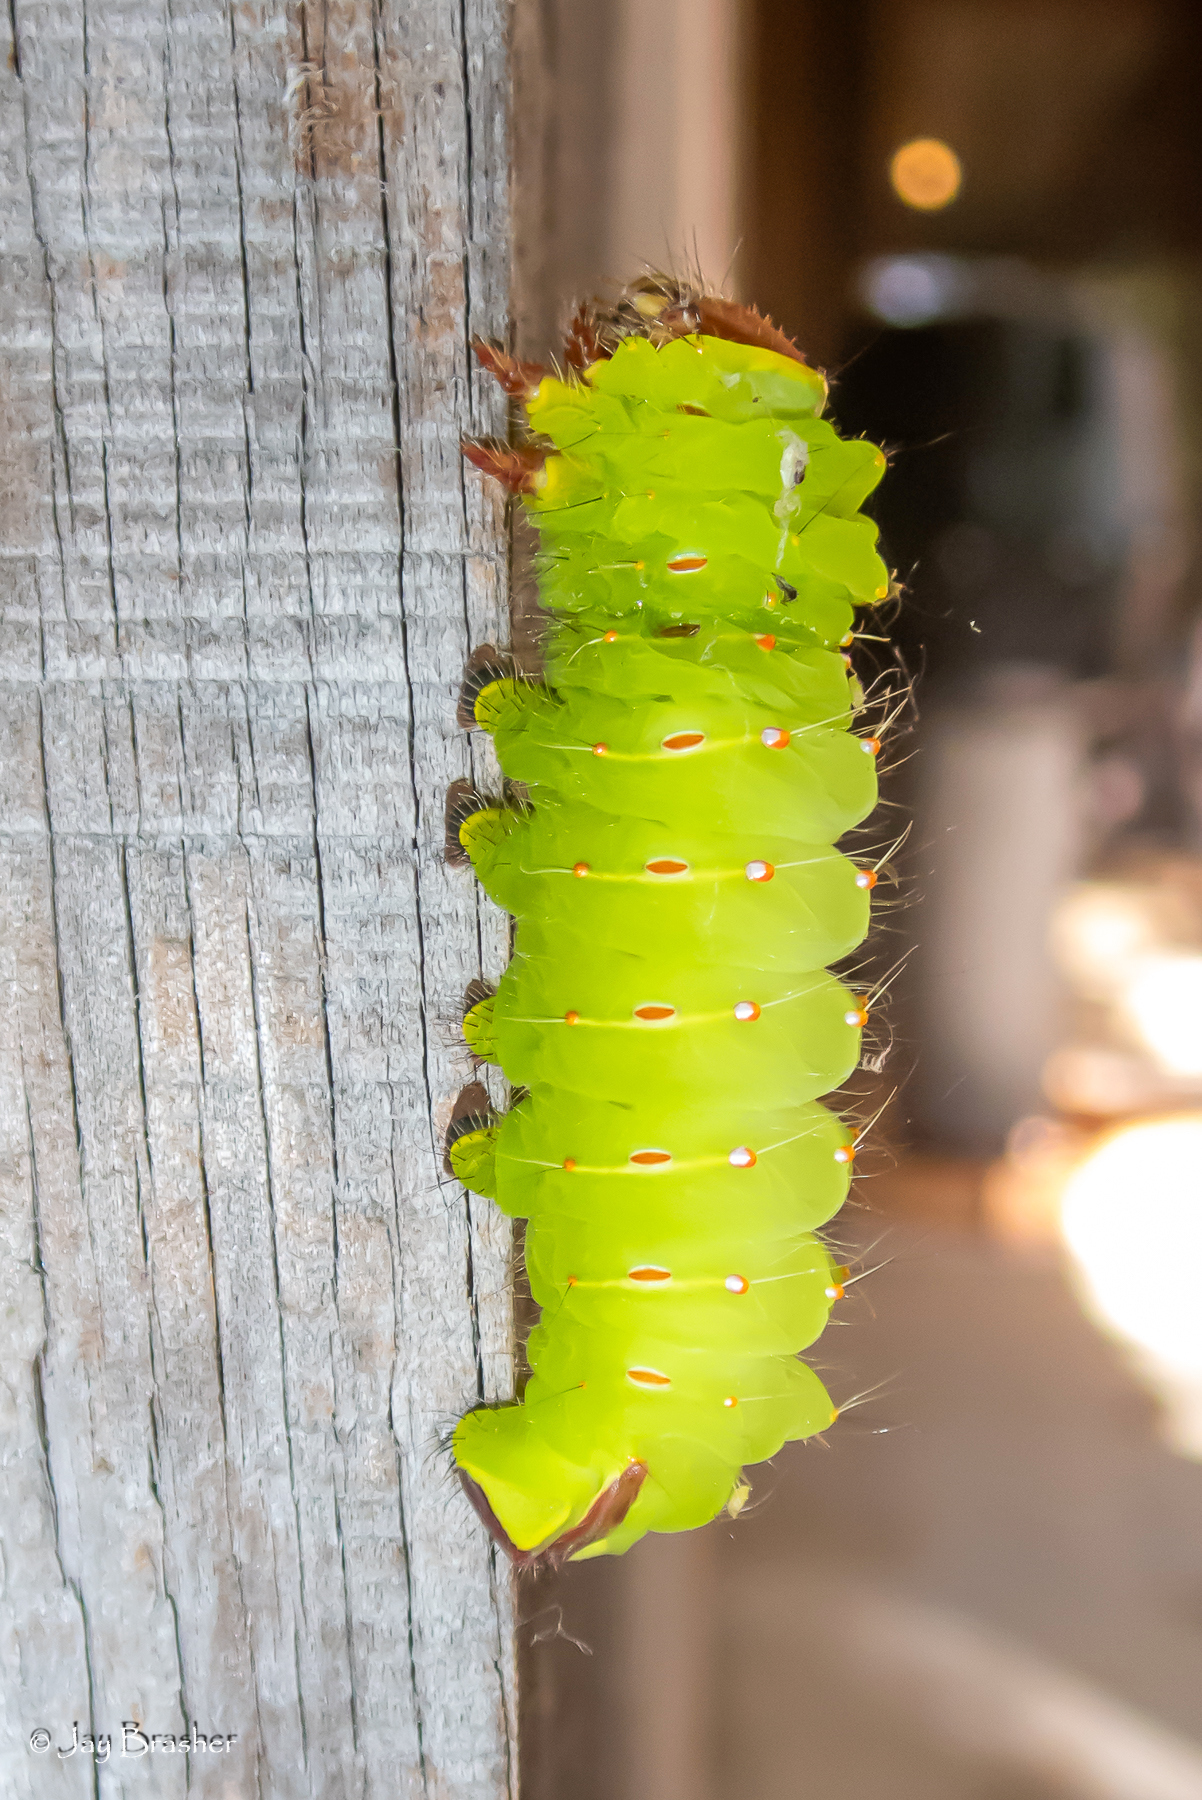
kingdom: Animalia
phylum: Arthropoda
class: Insecta
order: Lepidoptera
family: Saturniidae
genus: Antheraea
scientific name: Antheraea polyphemus
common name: Polyphemus moth
